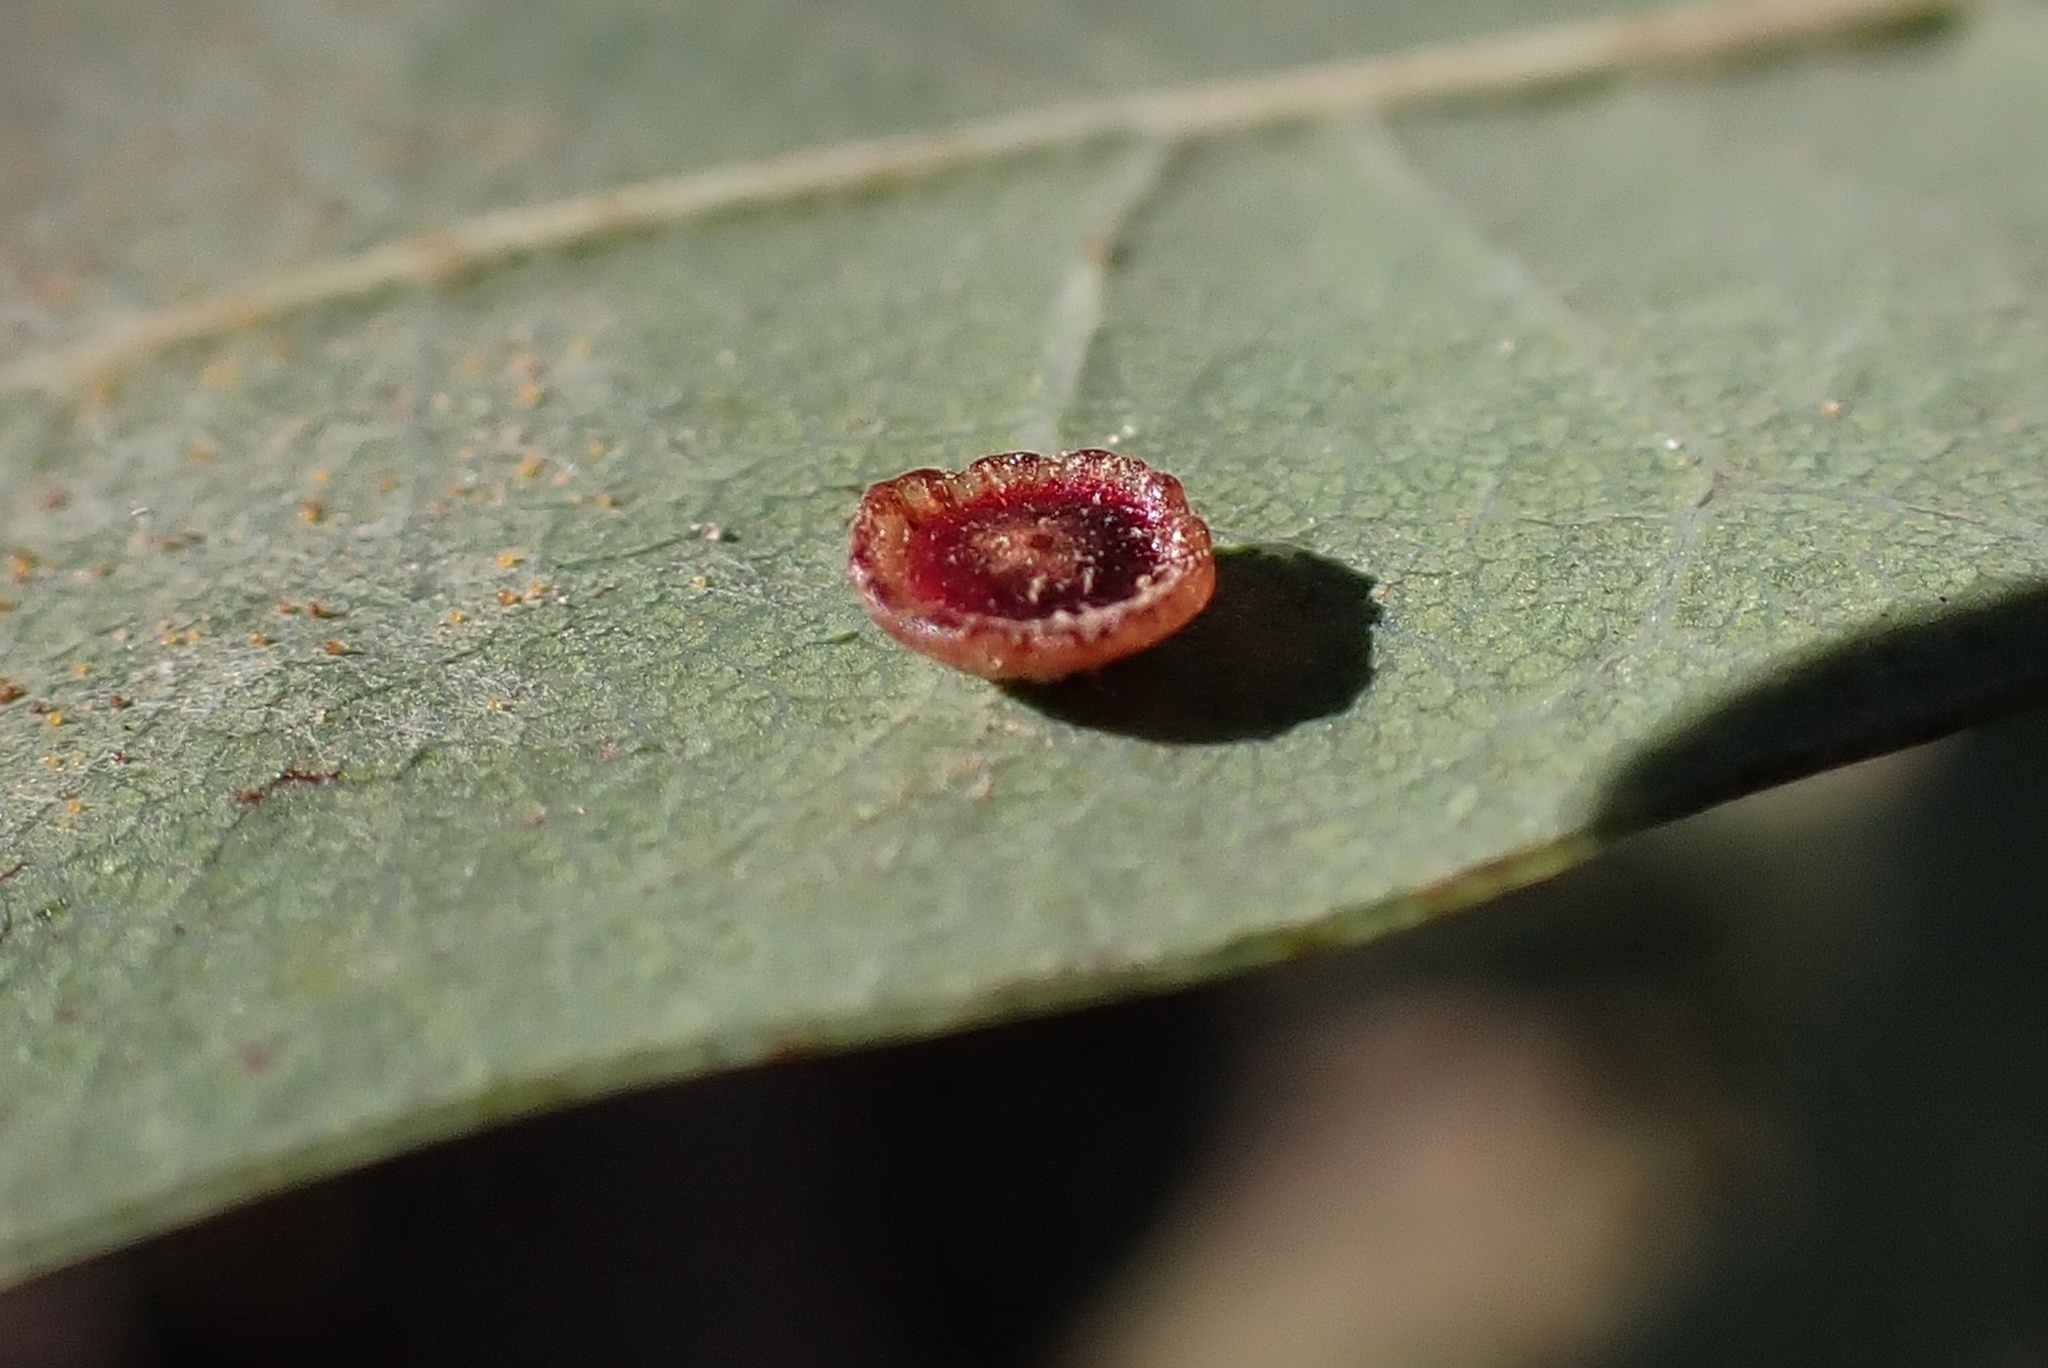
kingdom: Animalia
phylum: Arthropoda
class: Insecta
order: Hymenoptera
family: Cynipidae
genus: Andricus
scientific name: Andricus
